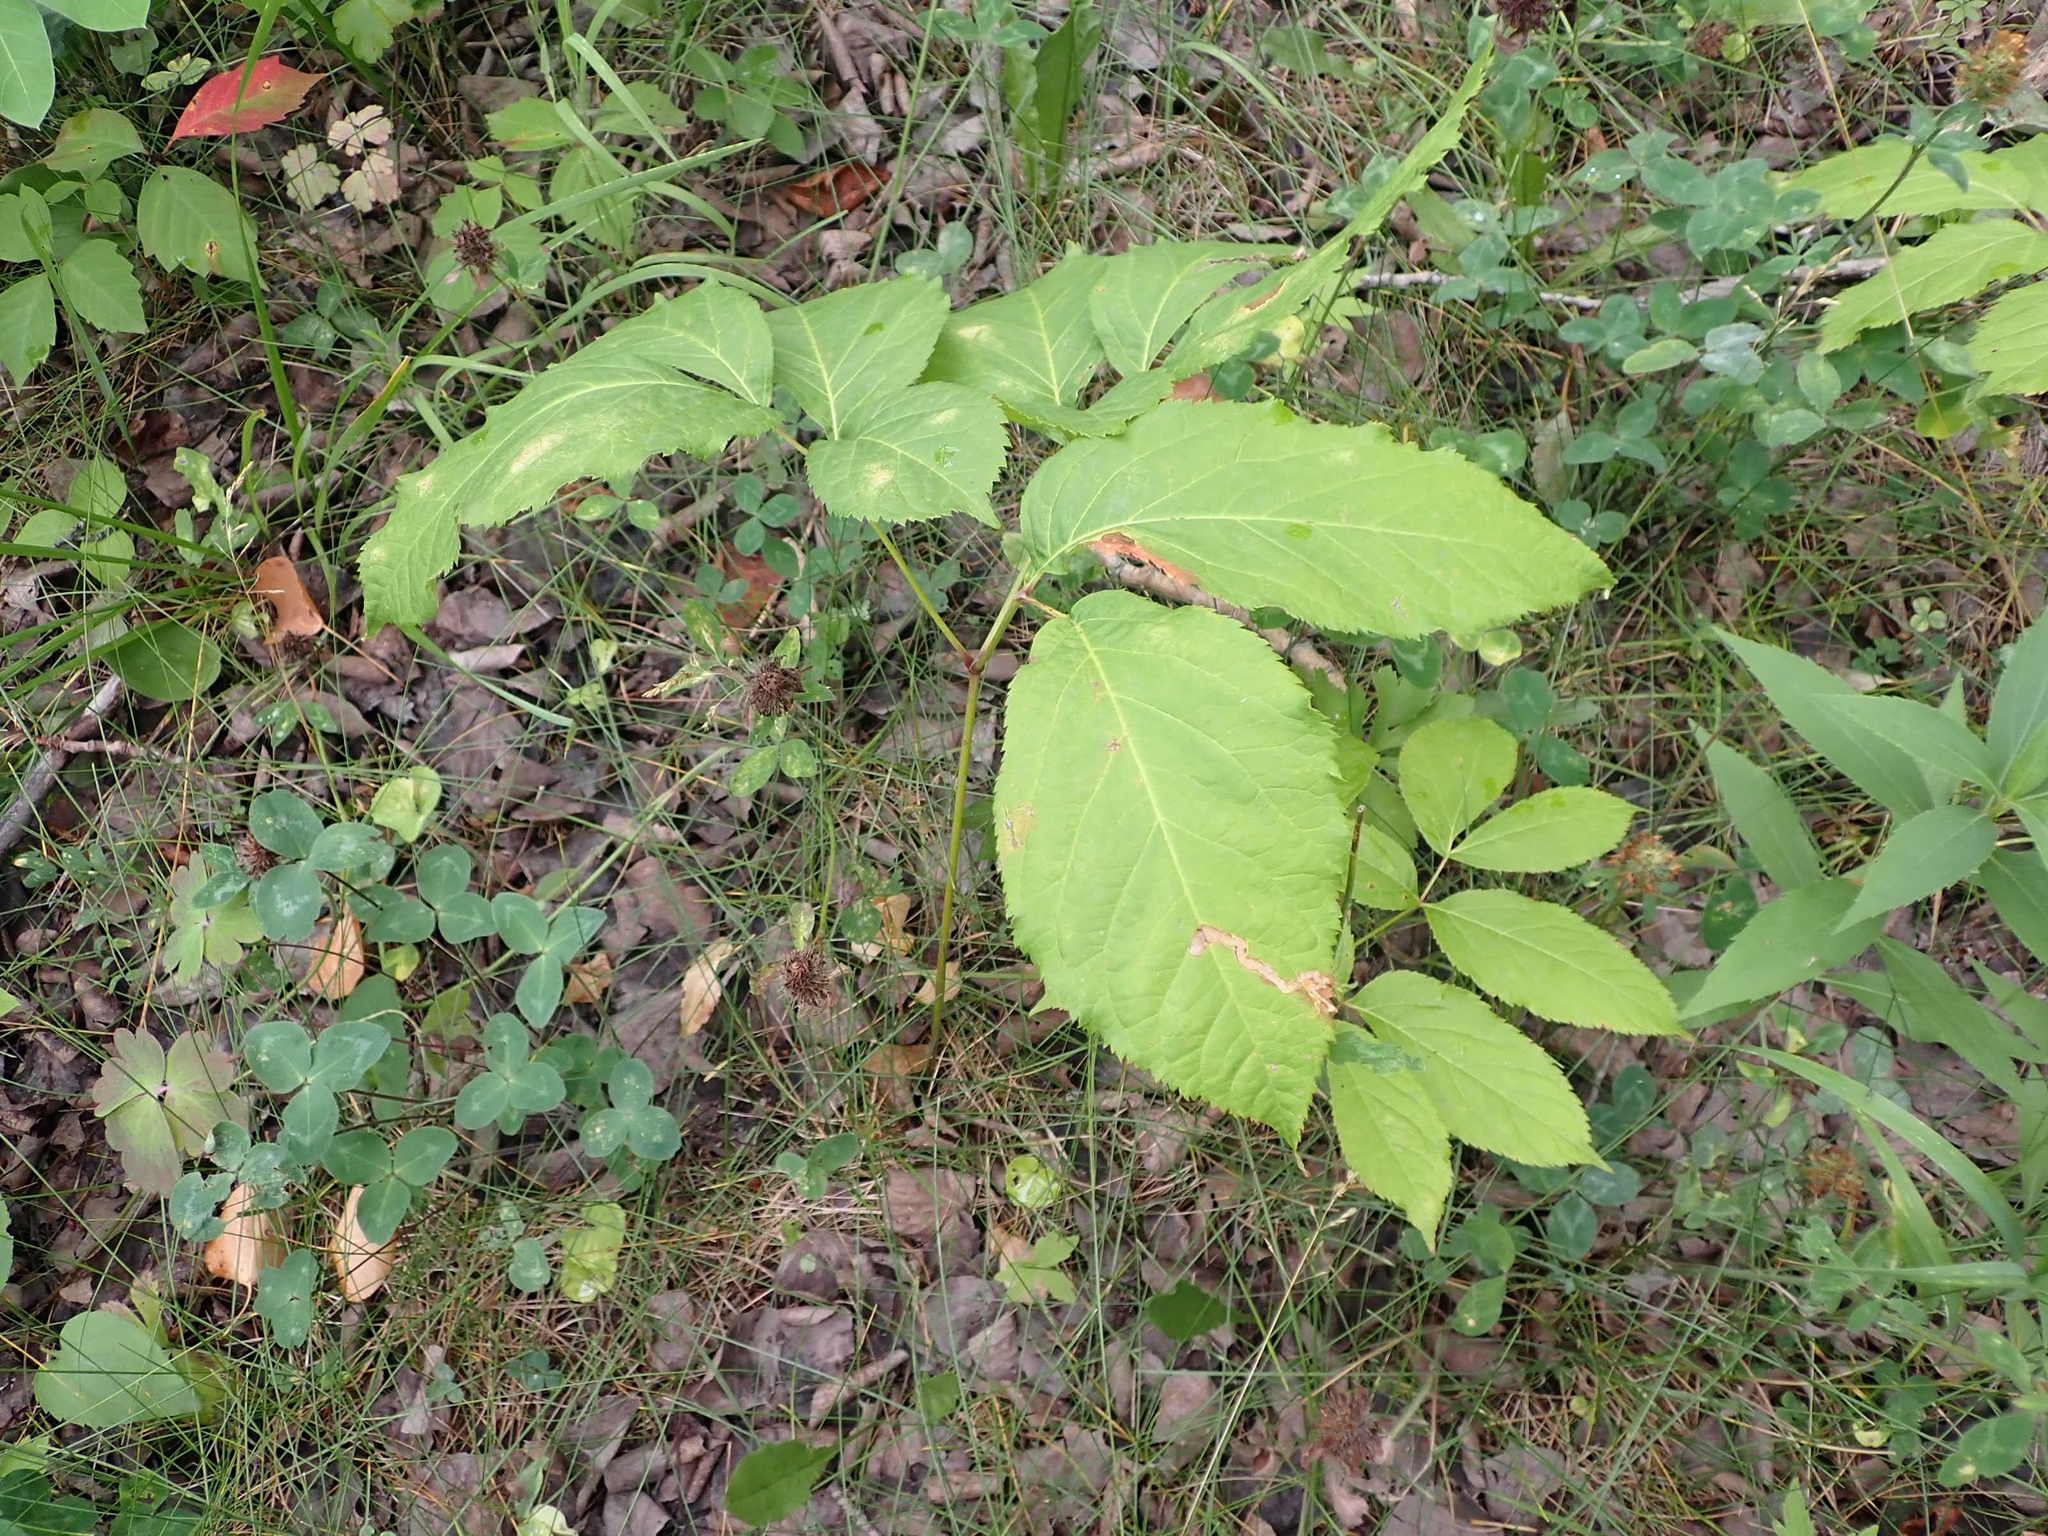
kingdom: Plantae
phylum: Tracheophyta
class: Magnoliopsida
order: Apiales
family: Araliaceae
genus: Aralia
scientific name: Aralia nudicaulis
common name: Wild sarsaparilla
